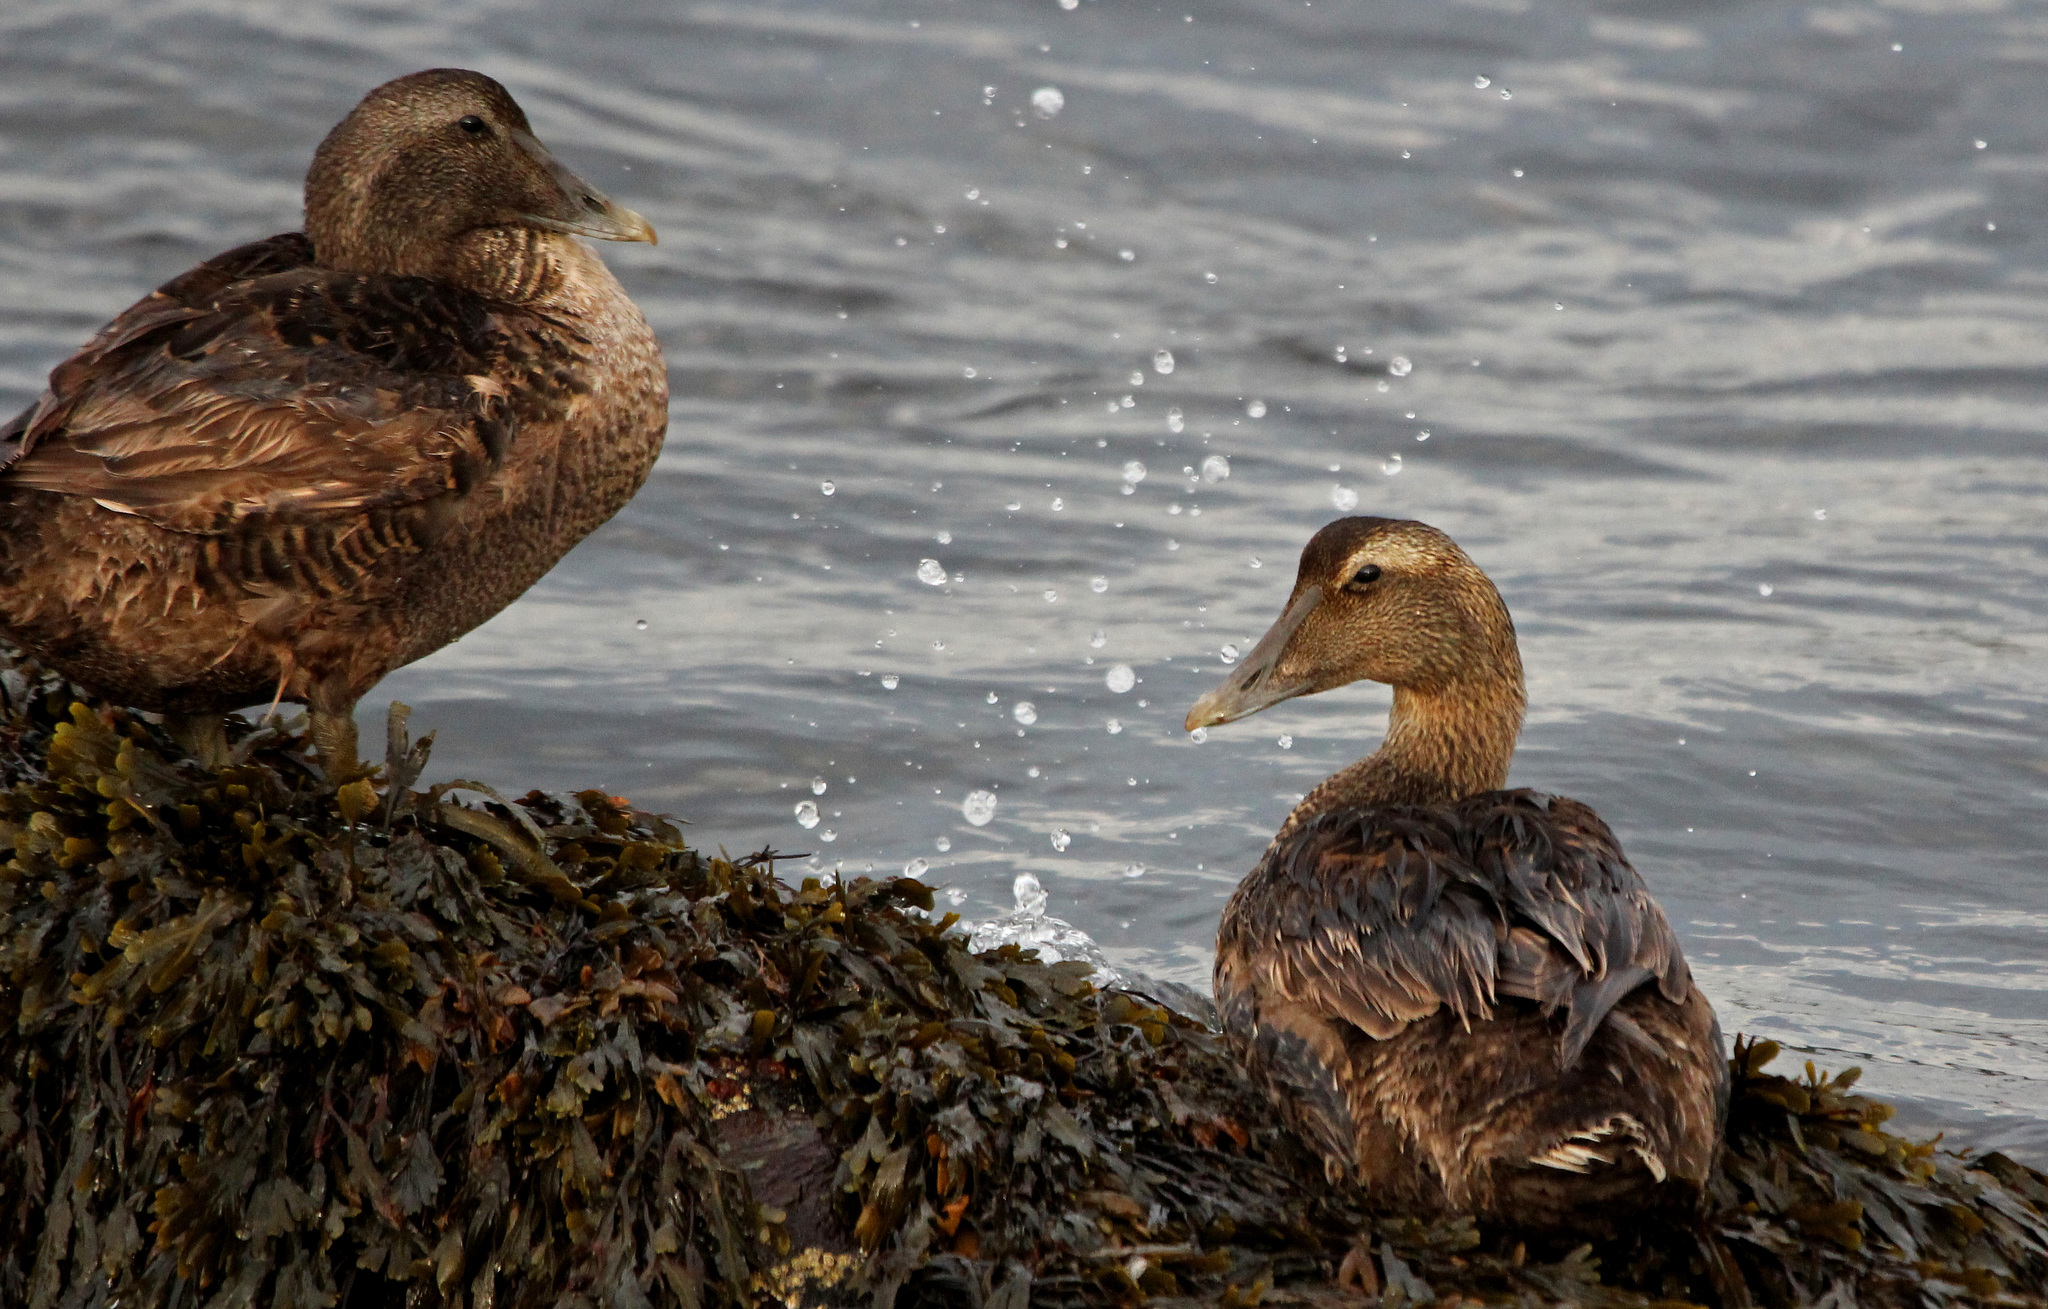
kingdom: Animalia
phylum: Chordata
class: Aves
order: Anseriformes
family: Anatidae
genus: Somateria
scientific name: Somateria mollissima
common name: Common eider
